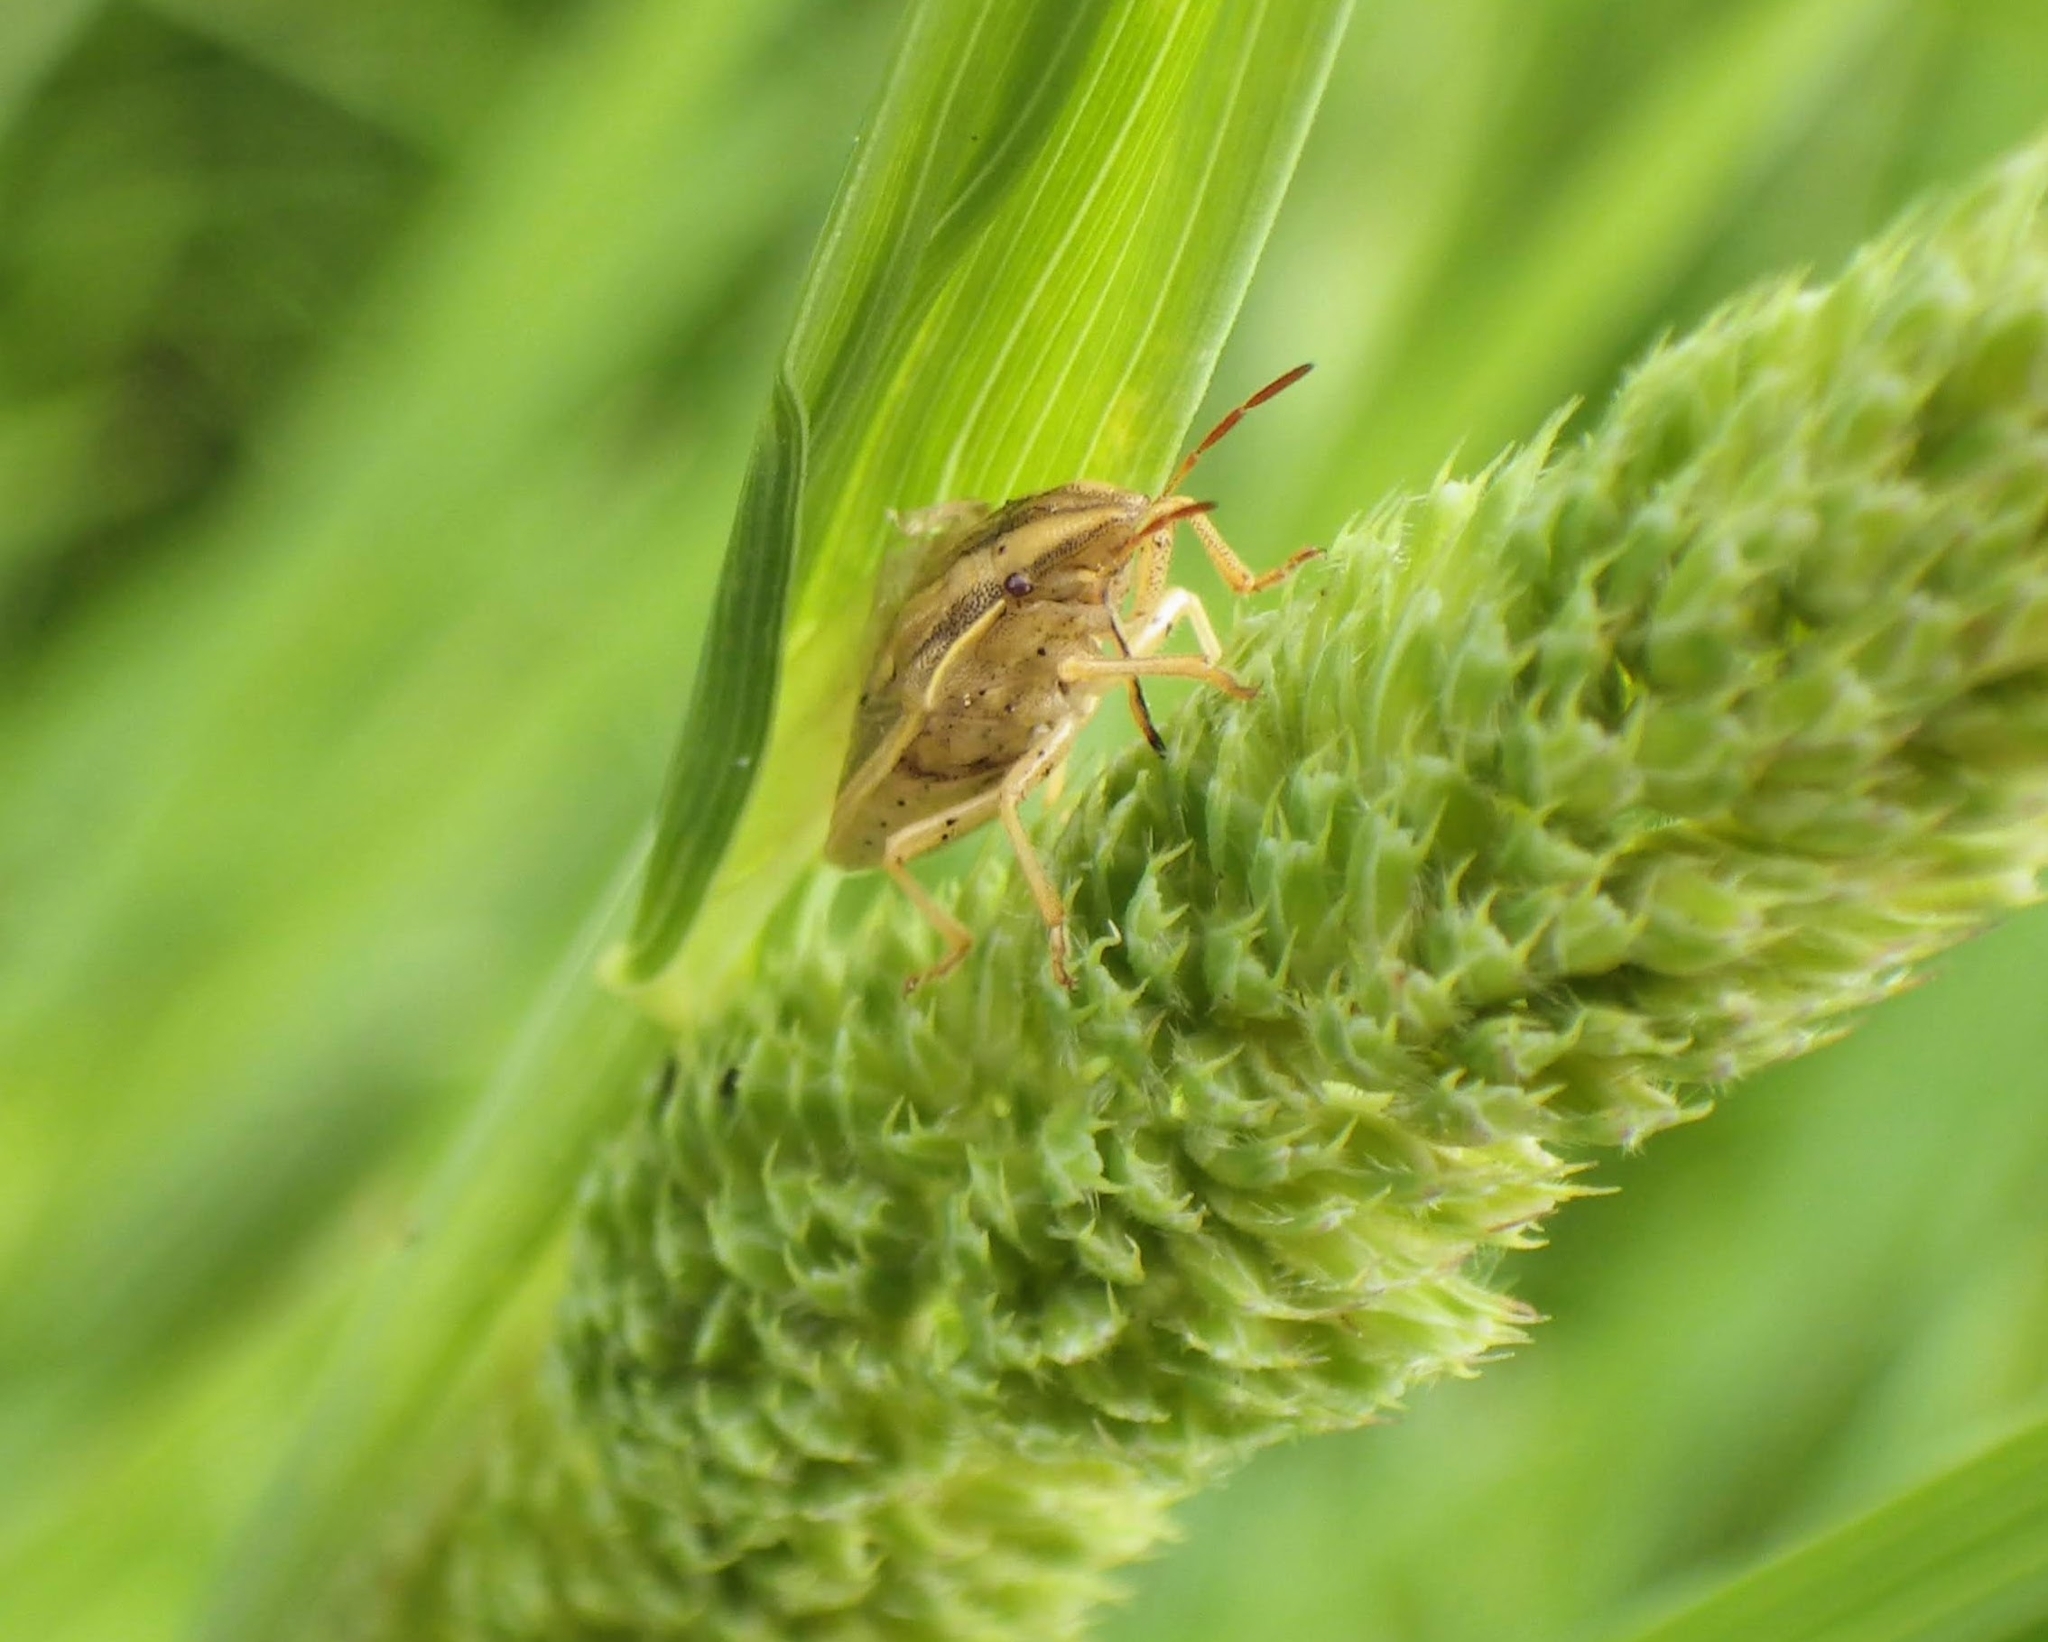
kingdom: Animalia
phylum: Arthropoda
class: Insecta
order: Hemiptera
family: Pentatomidae
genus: Aelia
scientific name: Aelia acuminata
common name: Bishop's mitre
